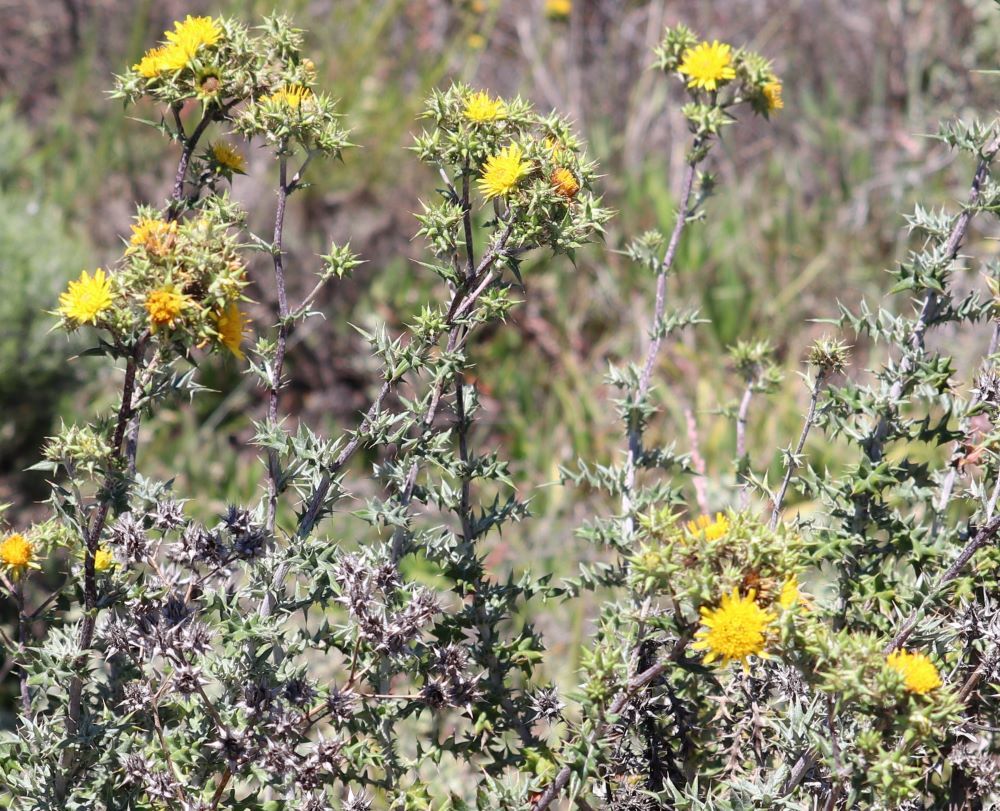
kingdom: Plantae
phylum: Tracheophyta
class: Magnoliopsida
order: Asterales
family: Asteraceae
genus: Berkheya
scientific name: Berkheya heterophylla
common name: Prickly gousblom
